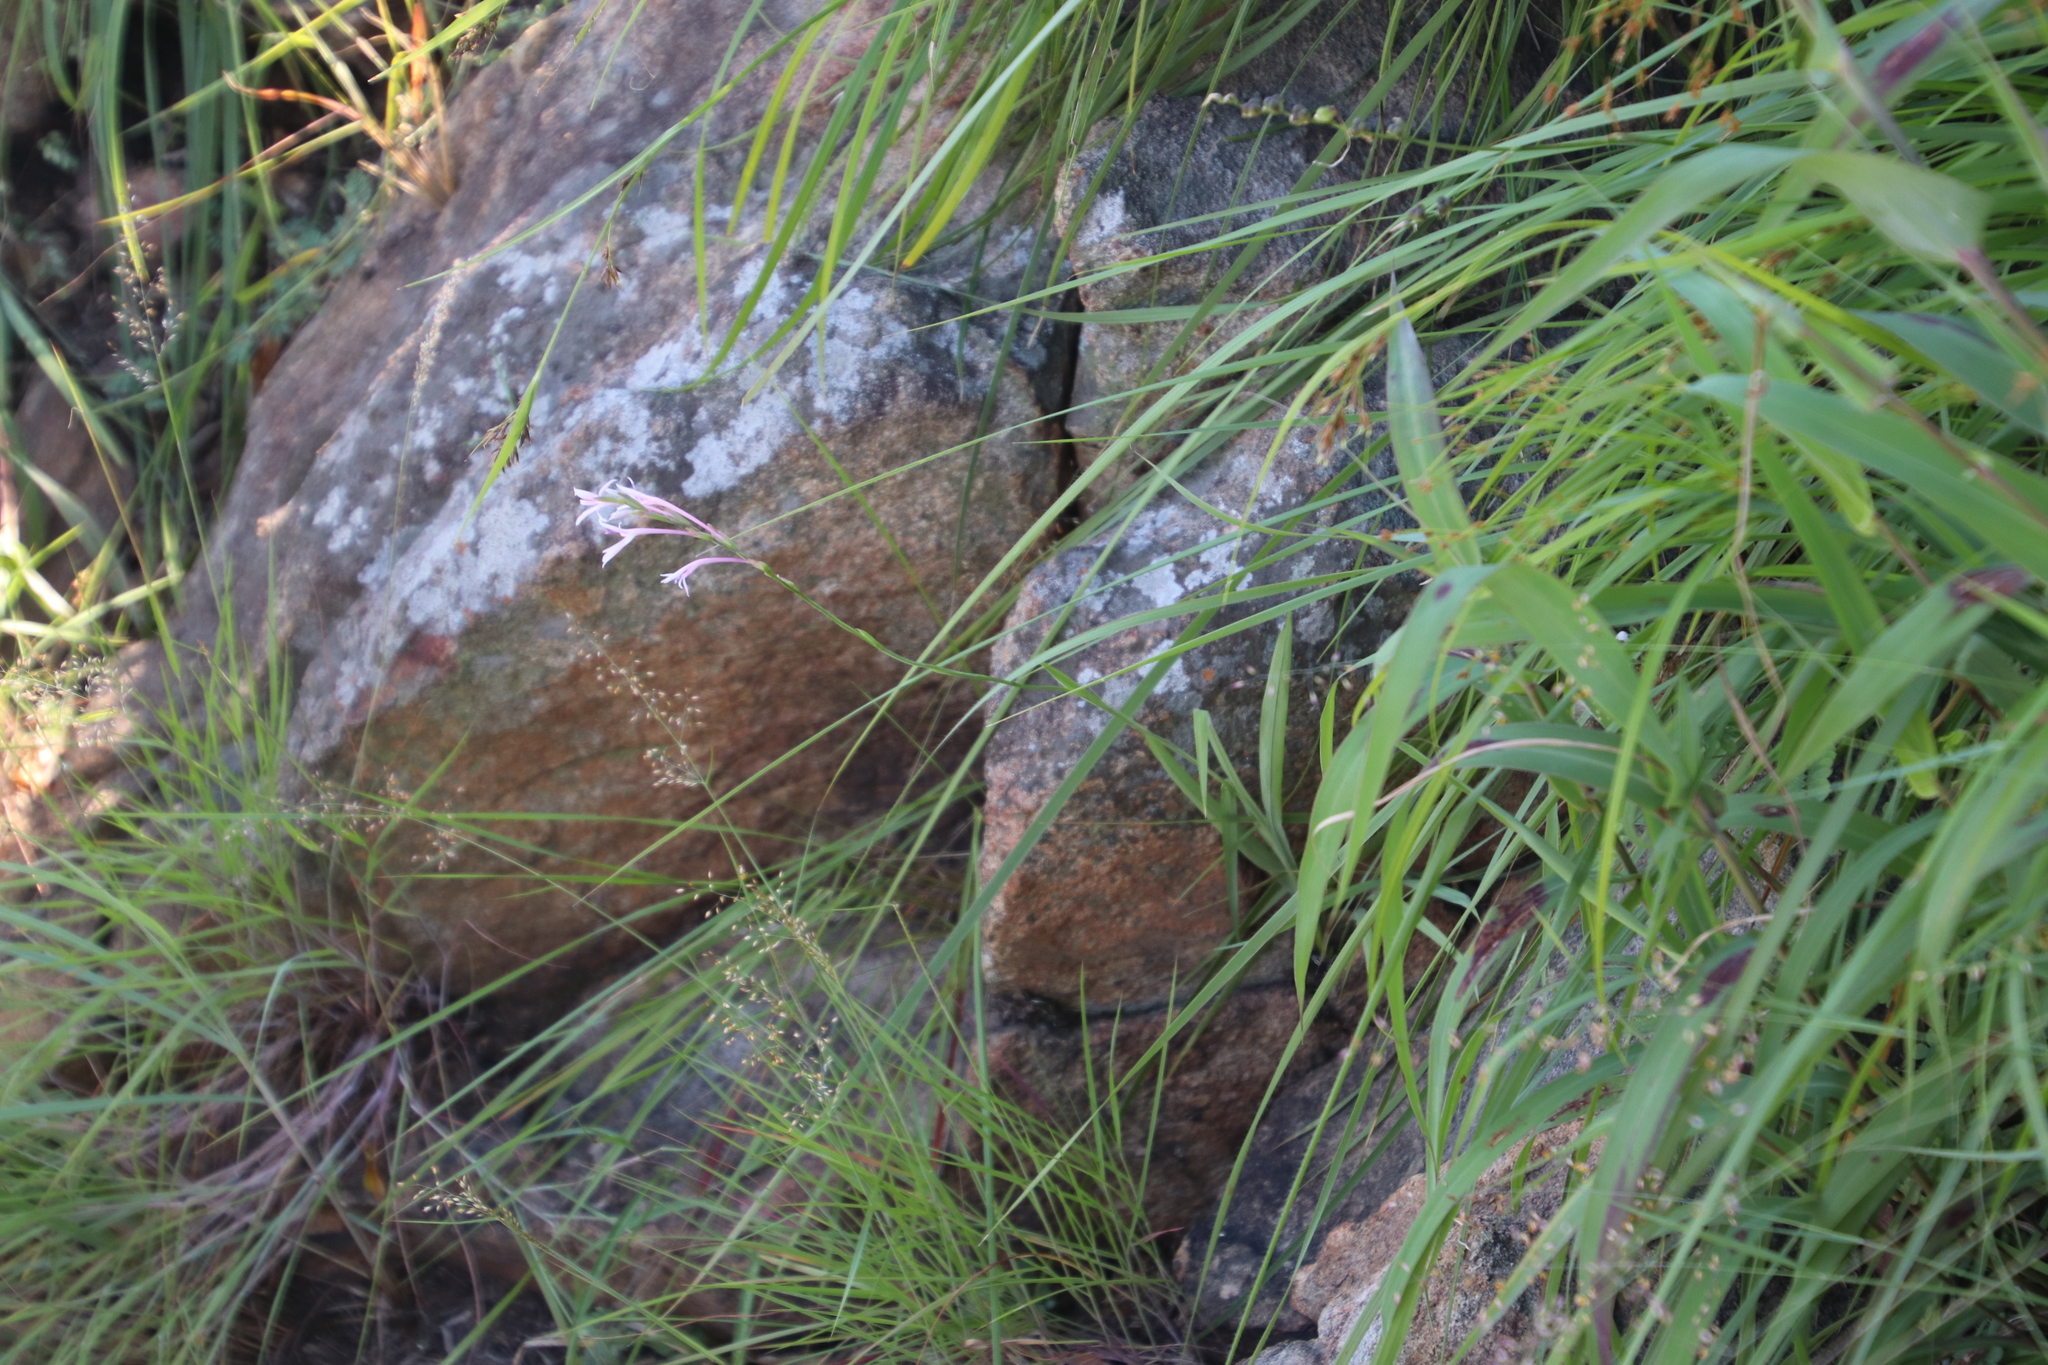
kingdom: Plantae
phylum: Tracheophyta
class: Liliopsida
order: Asparagales
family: Iridaceae
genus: Radinosiphon
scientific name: Radinosiphon leptostachya
